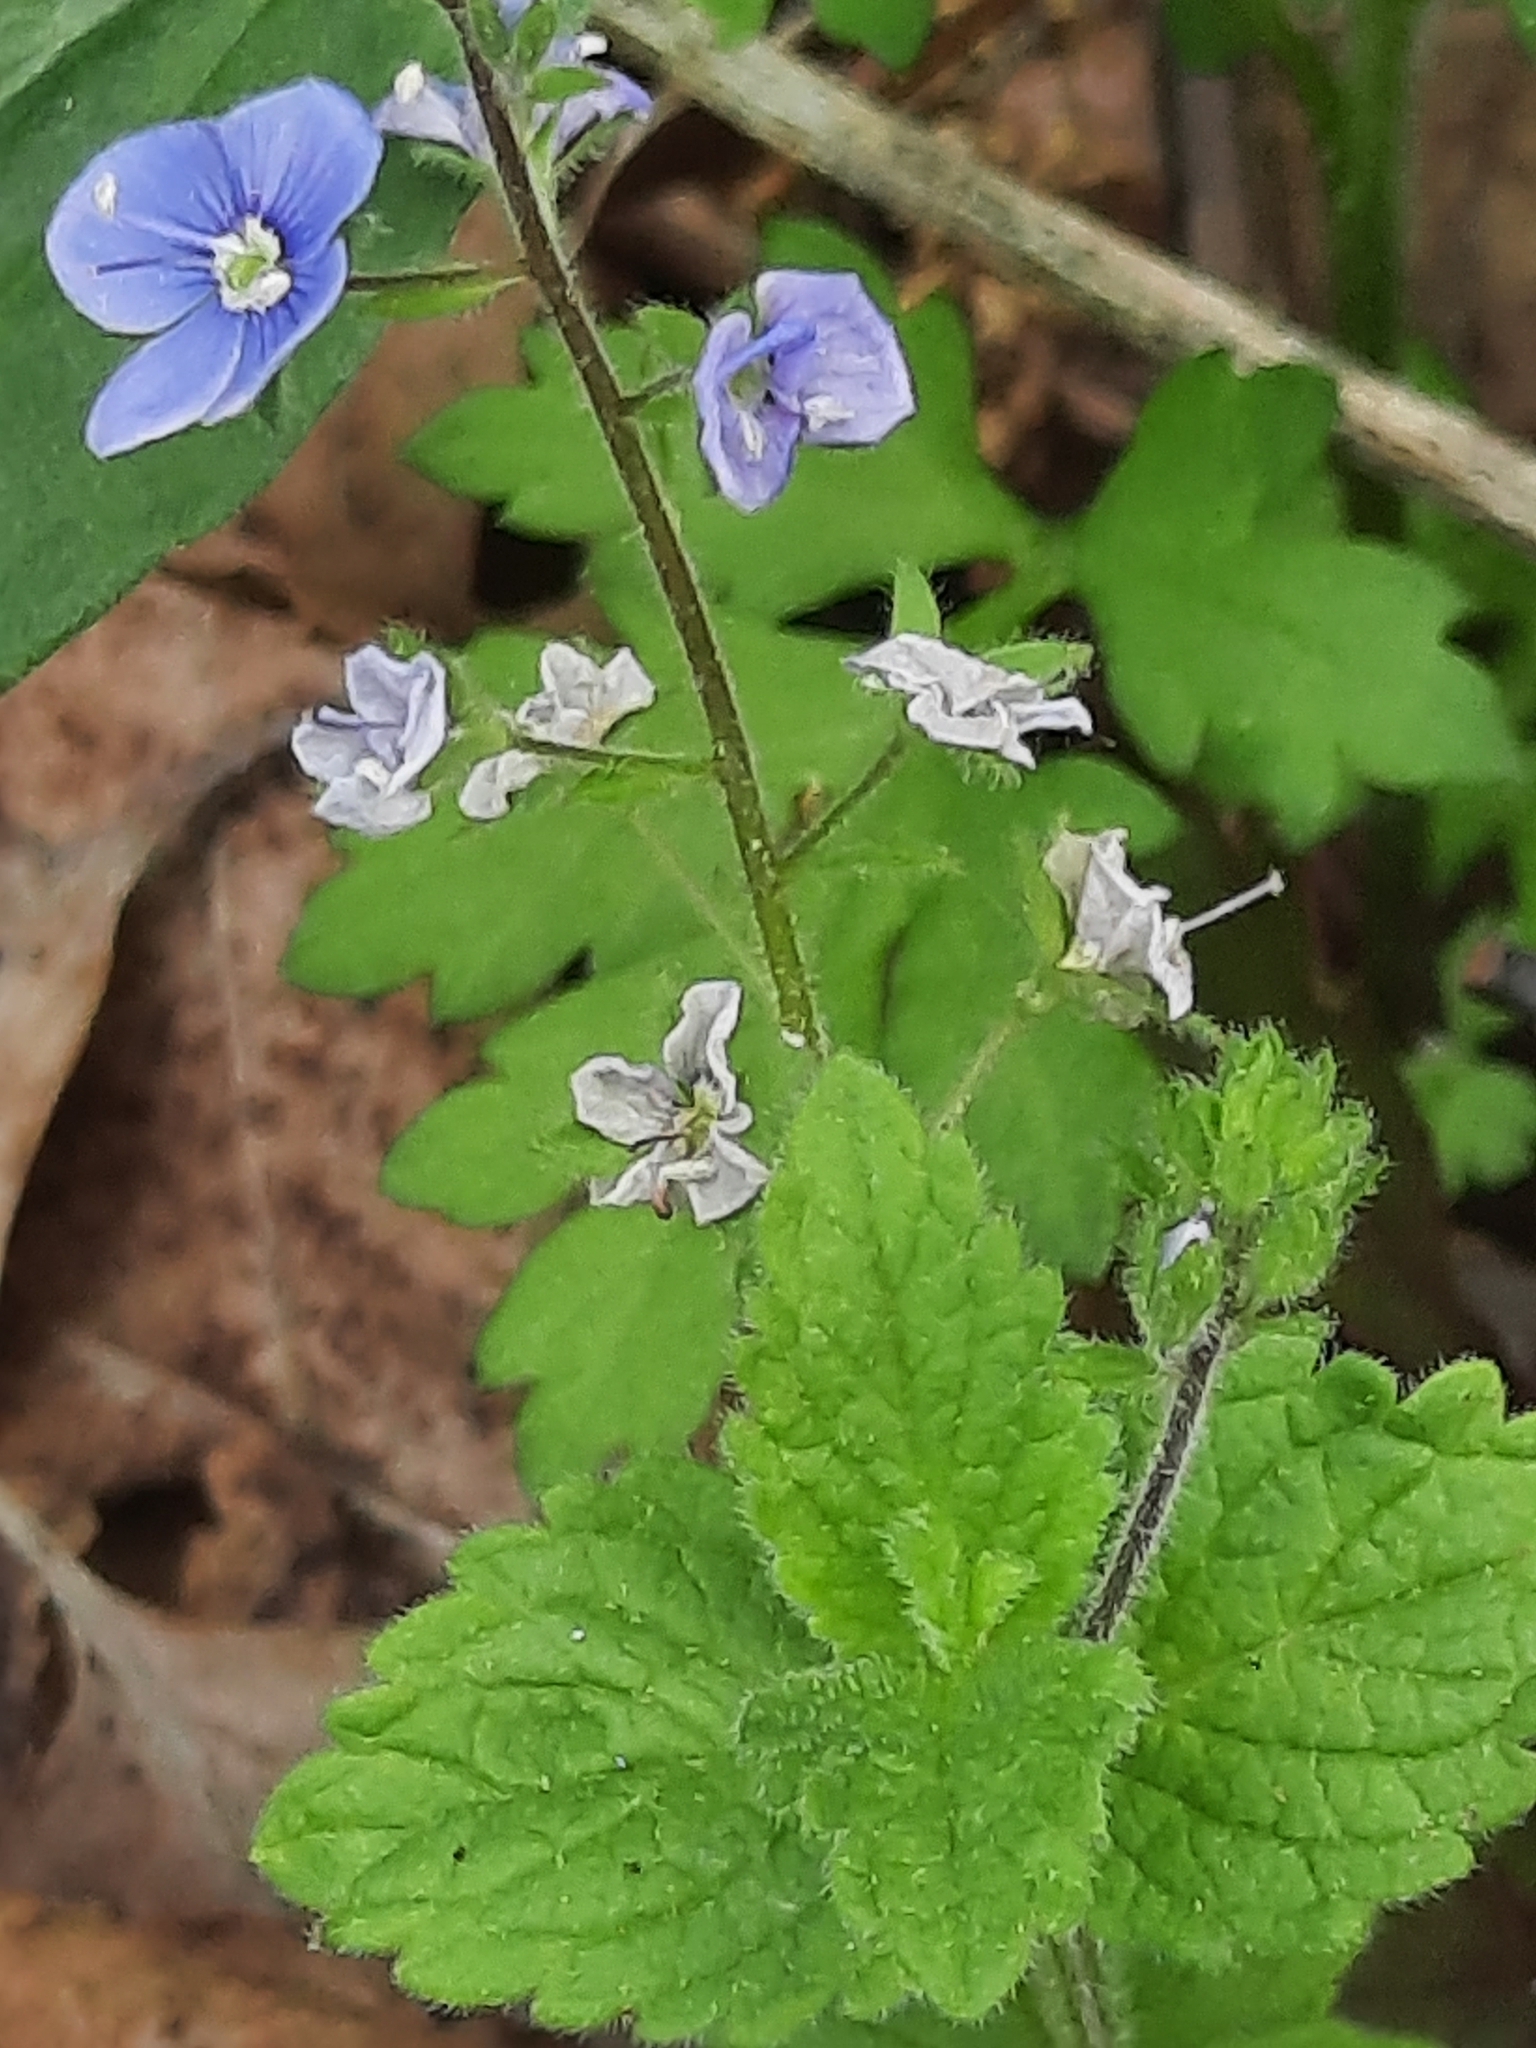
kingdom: Plantae
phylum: Tracheophyta
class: Magnoliopsida
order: Lamiales
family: Plantaginaceae
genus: Veronica
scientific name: Veronica chamaedrys
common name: Germander speedwell
